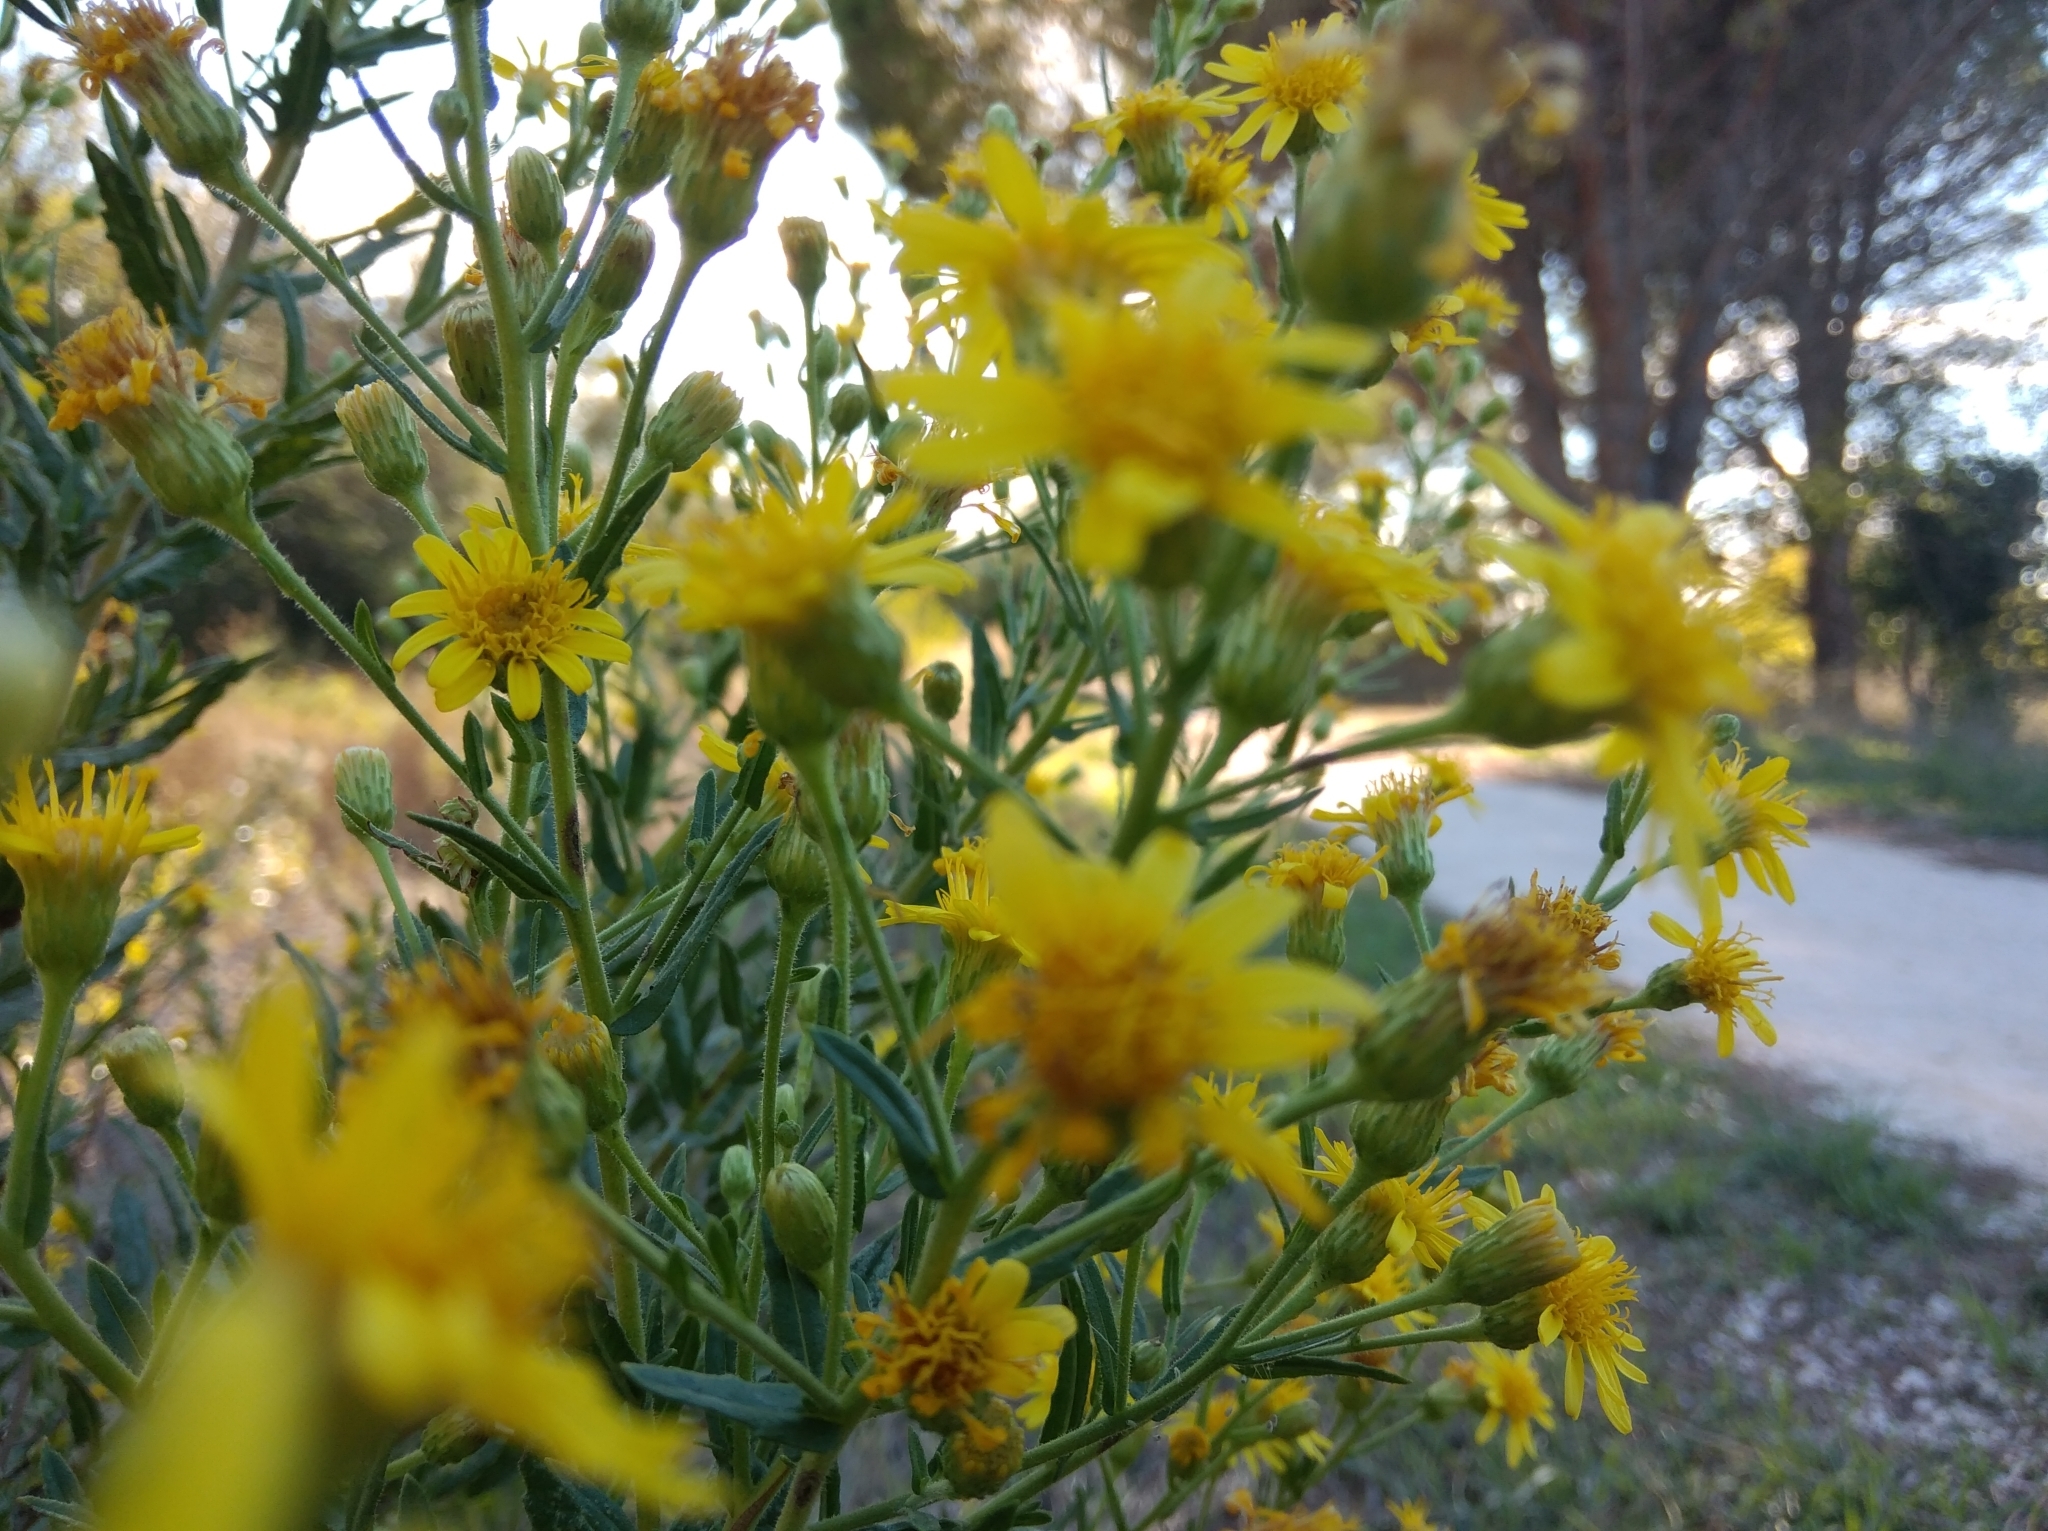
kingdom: Plantae
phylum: Tracheophyta
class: Magnoliopsida
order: Asterales
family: Asteraceae
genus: Dittrichia
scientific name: Dittrichia viscosa
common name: Woody fleabane
